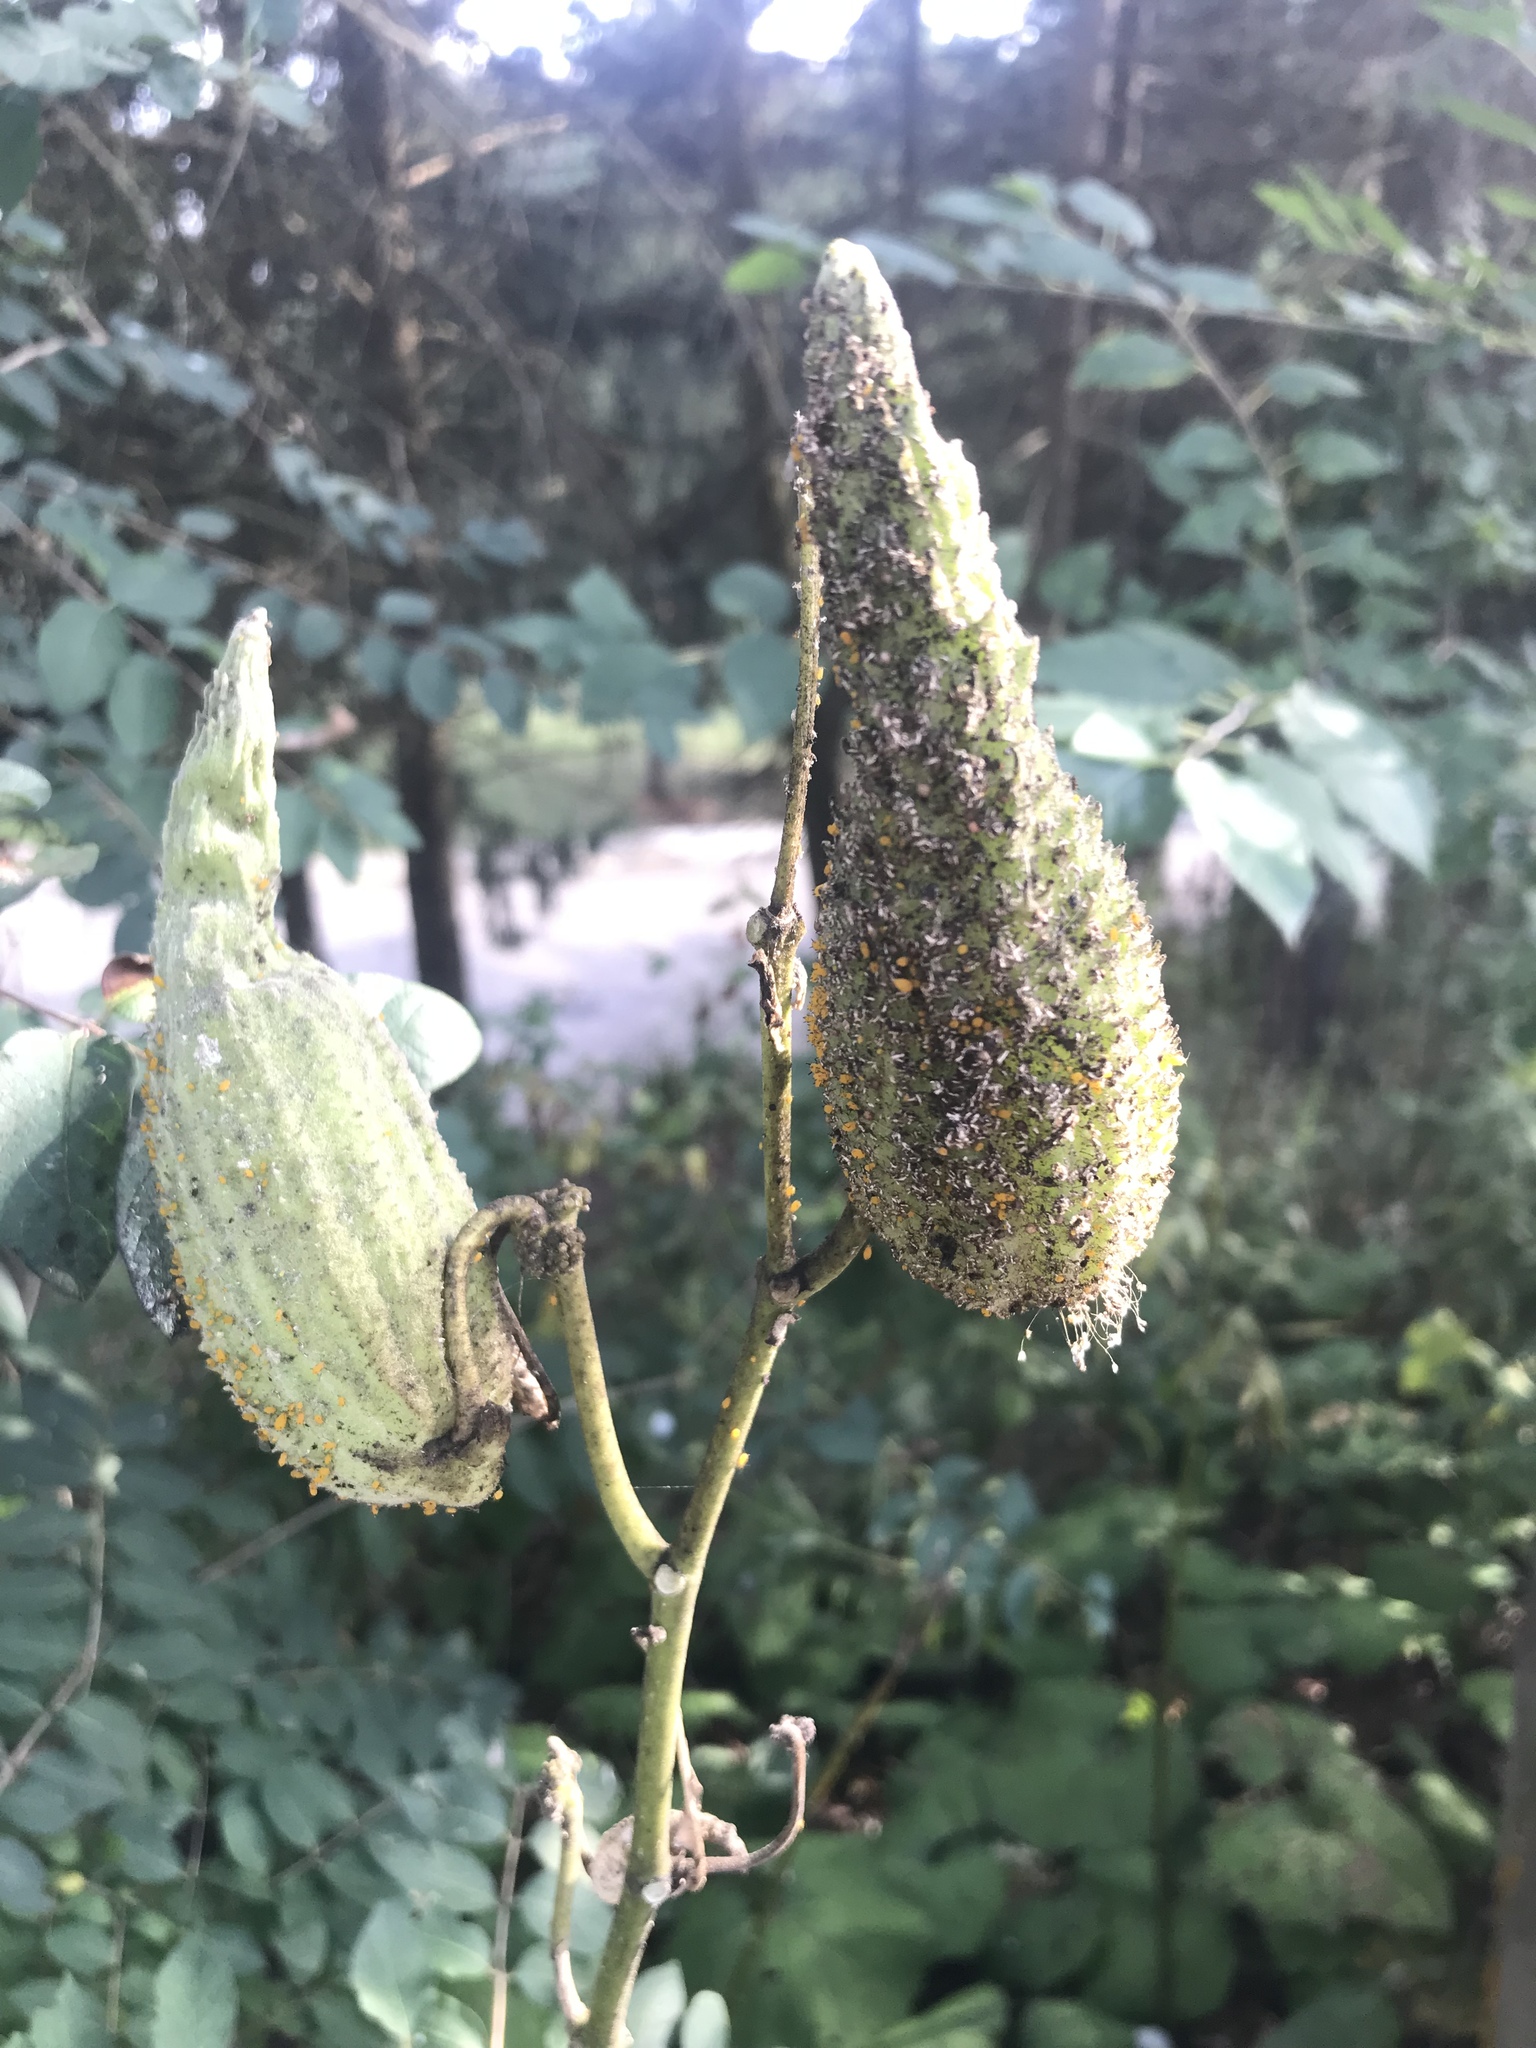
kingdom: Plantae
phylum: Tracheophyta
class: Magnoliopsida
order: Gentianales
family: Apocynaceae
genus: Asclepias
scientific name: Asclepias syriaca
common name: Common milkweed
